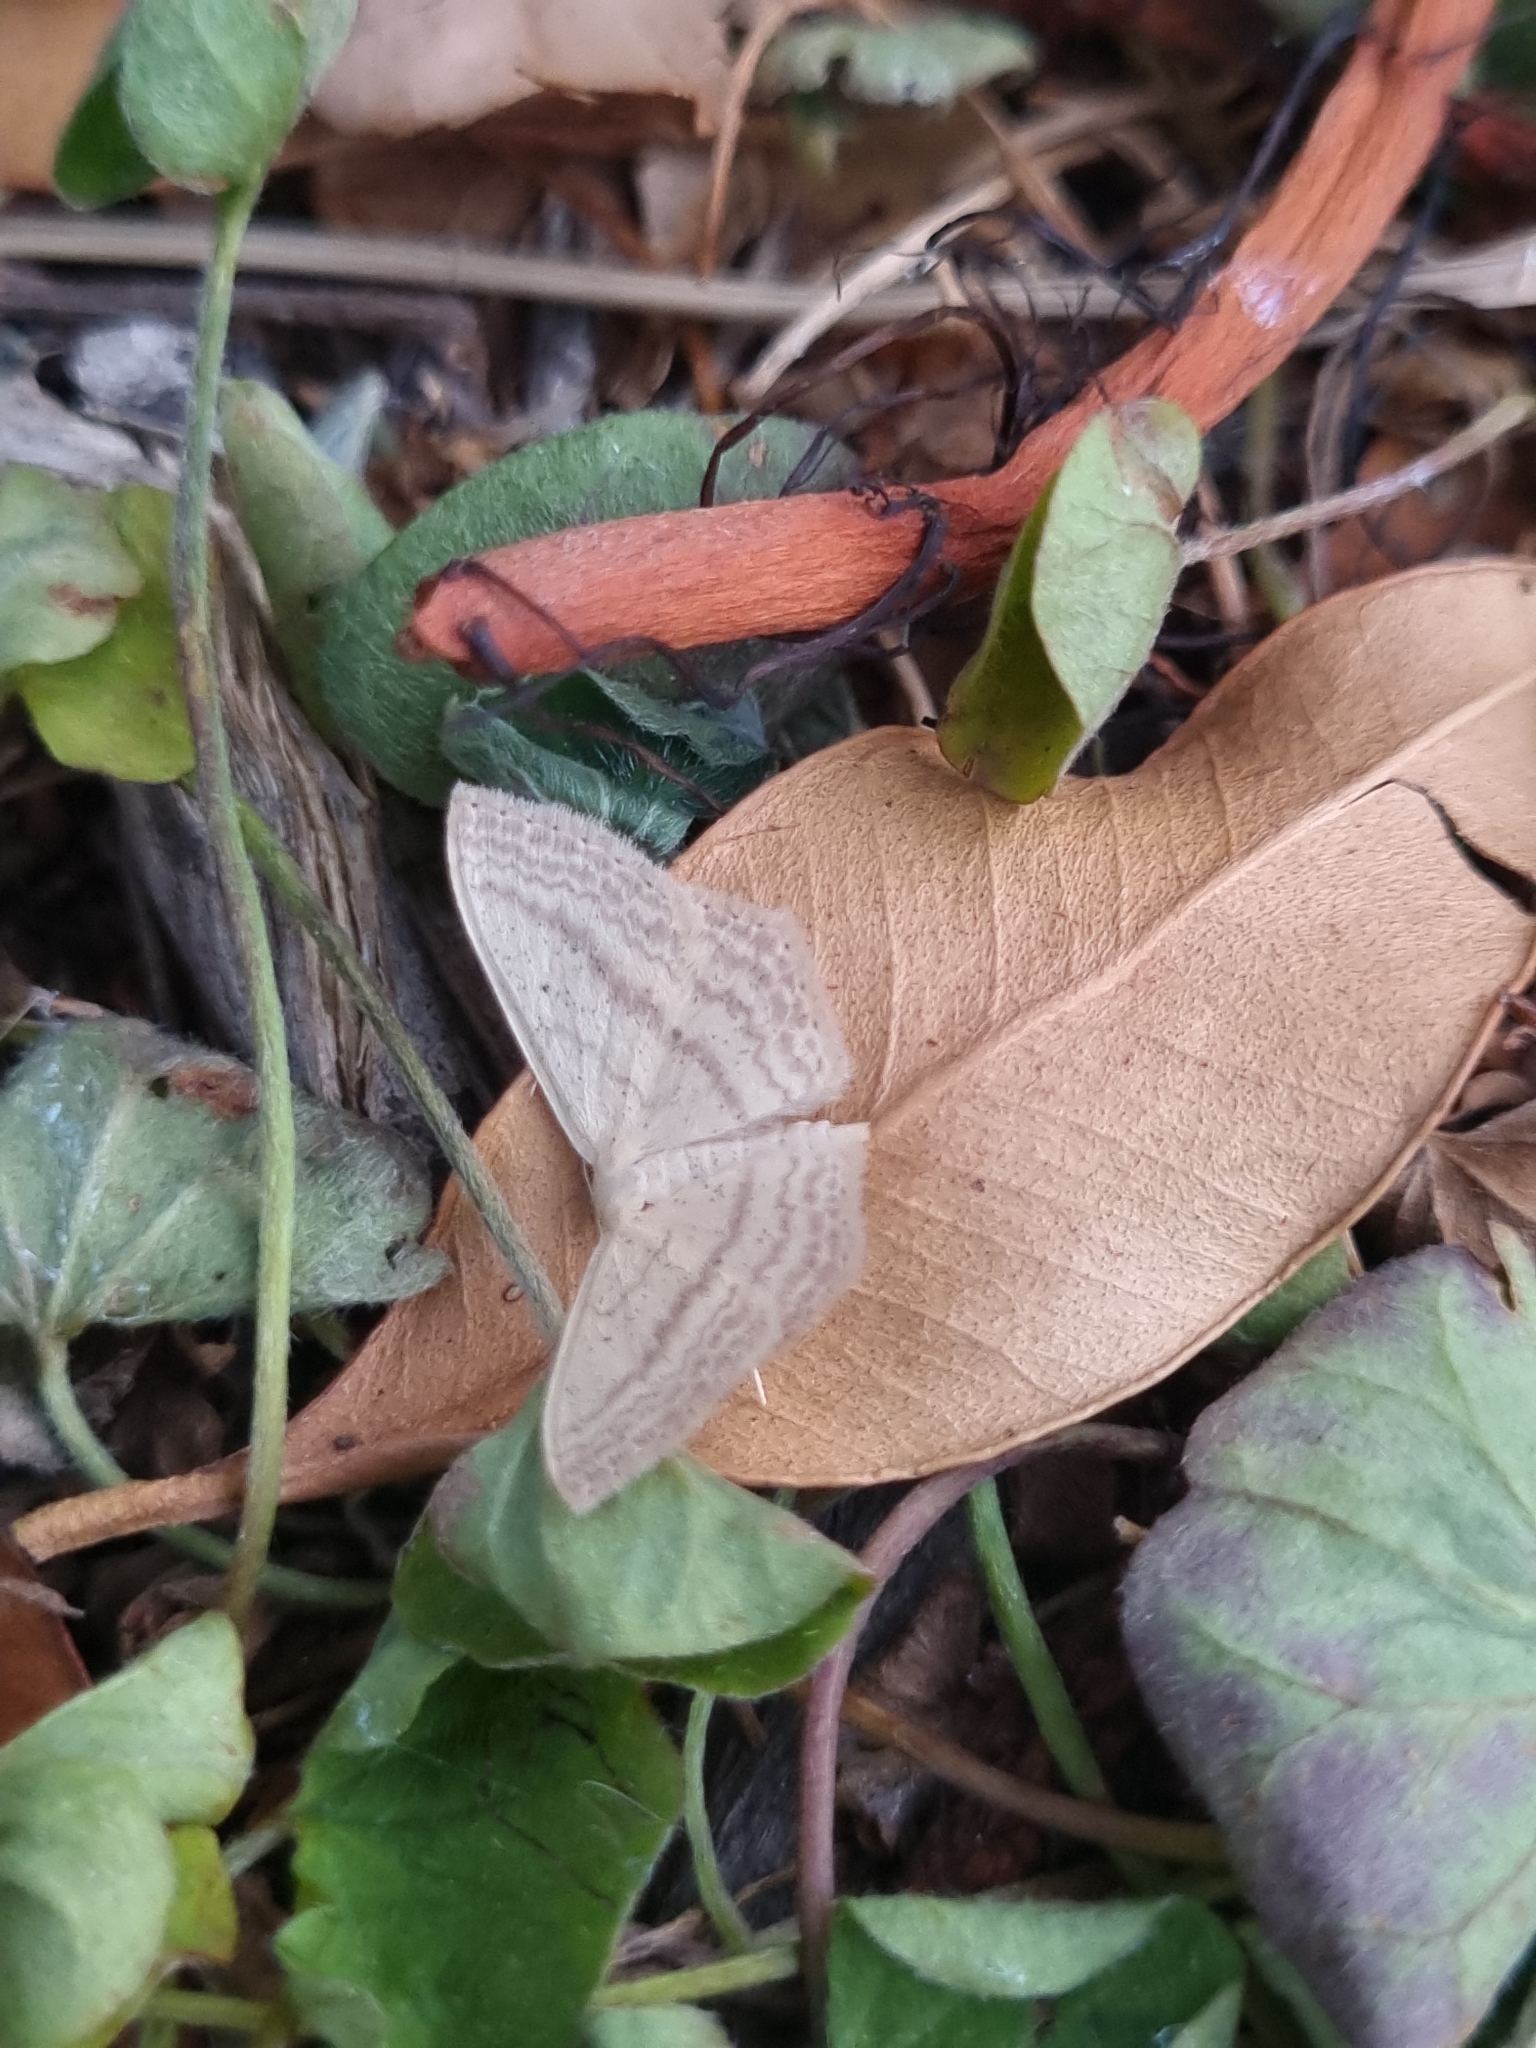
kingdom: Animalia
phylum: Arthropoda
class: Insecta
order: Lepidoptera
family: Geometridae
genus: Scopula
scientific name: Scopula perlata
